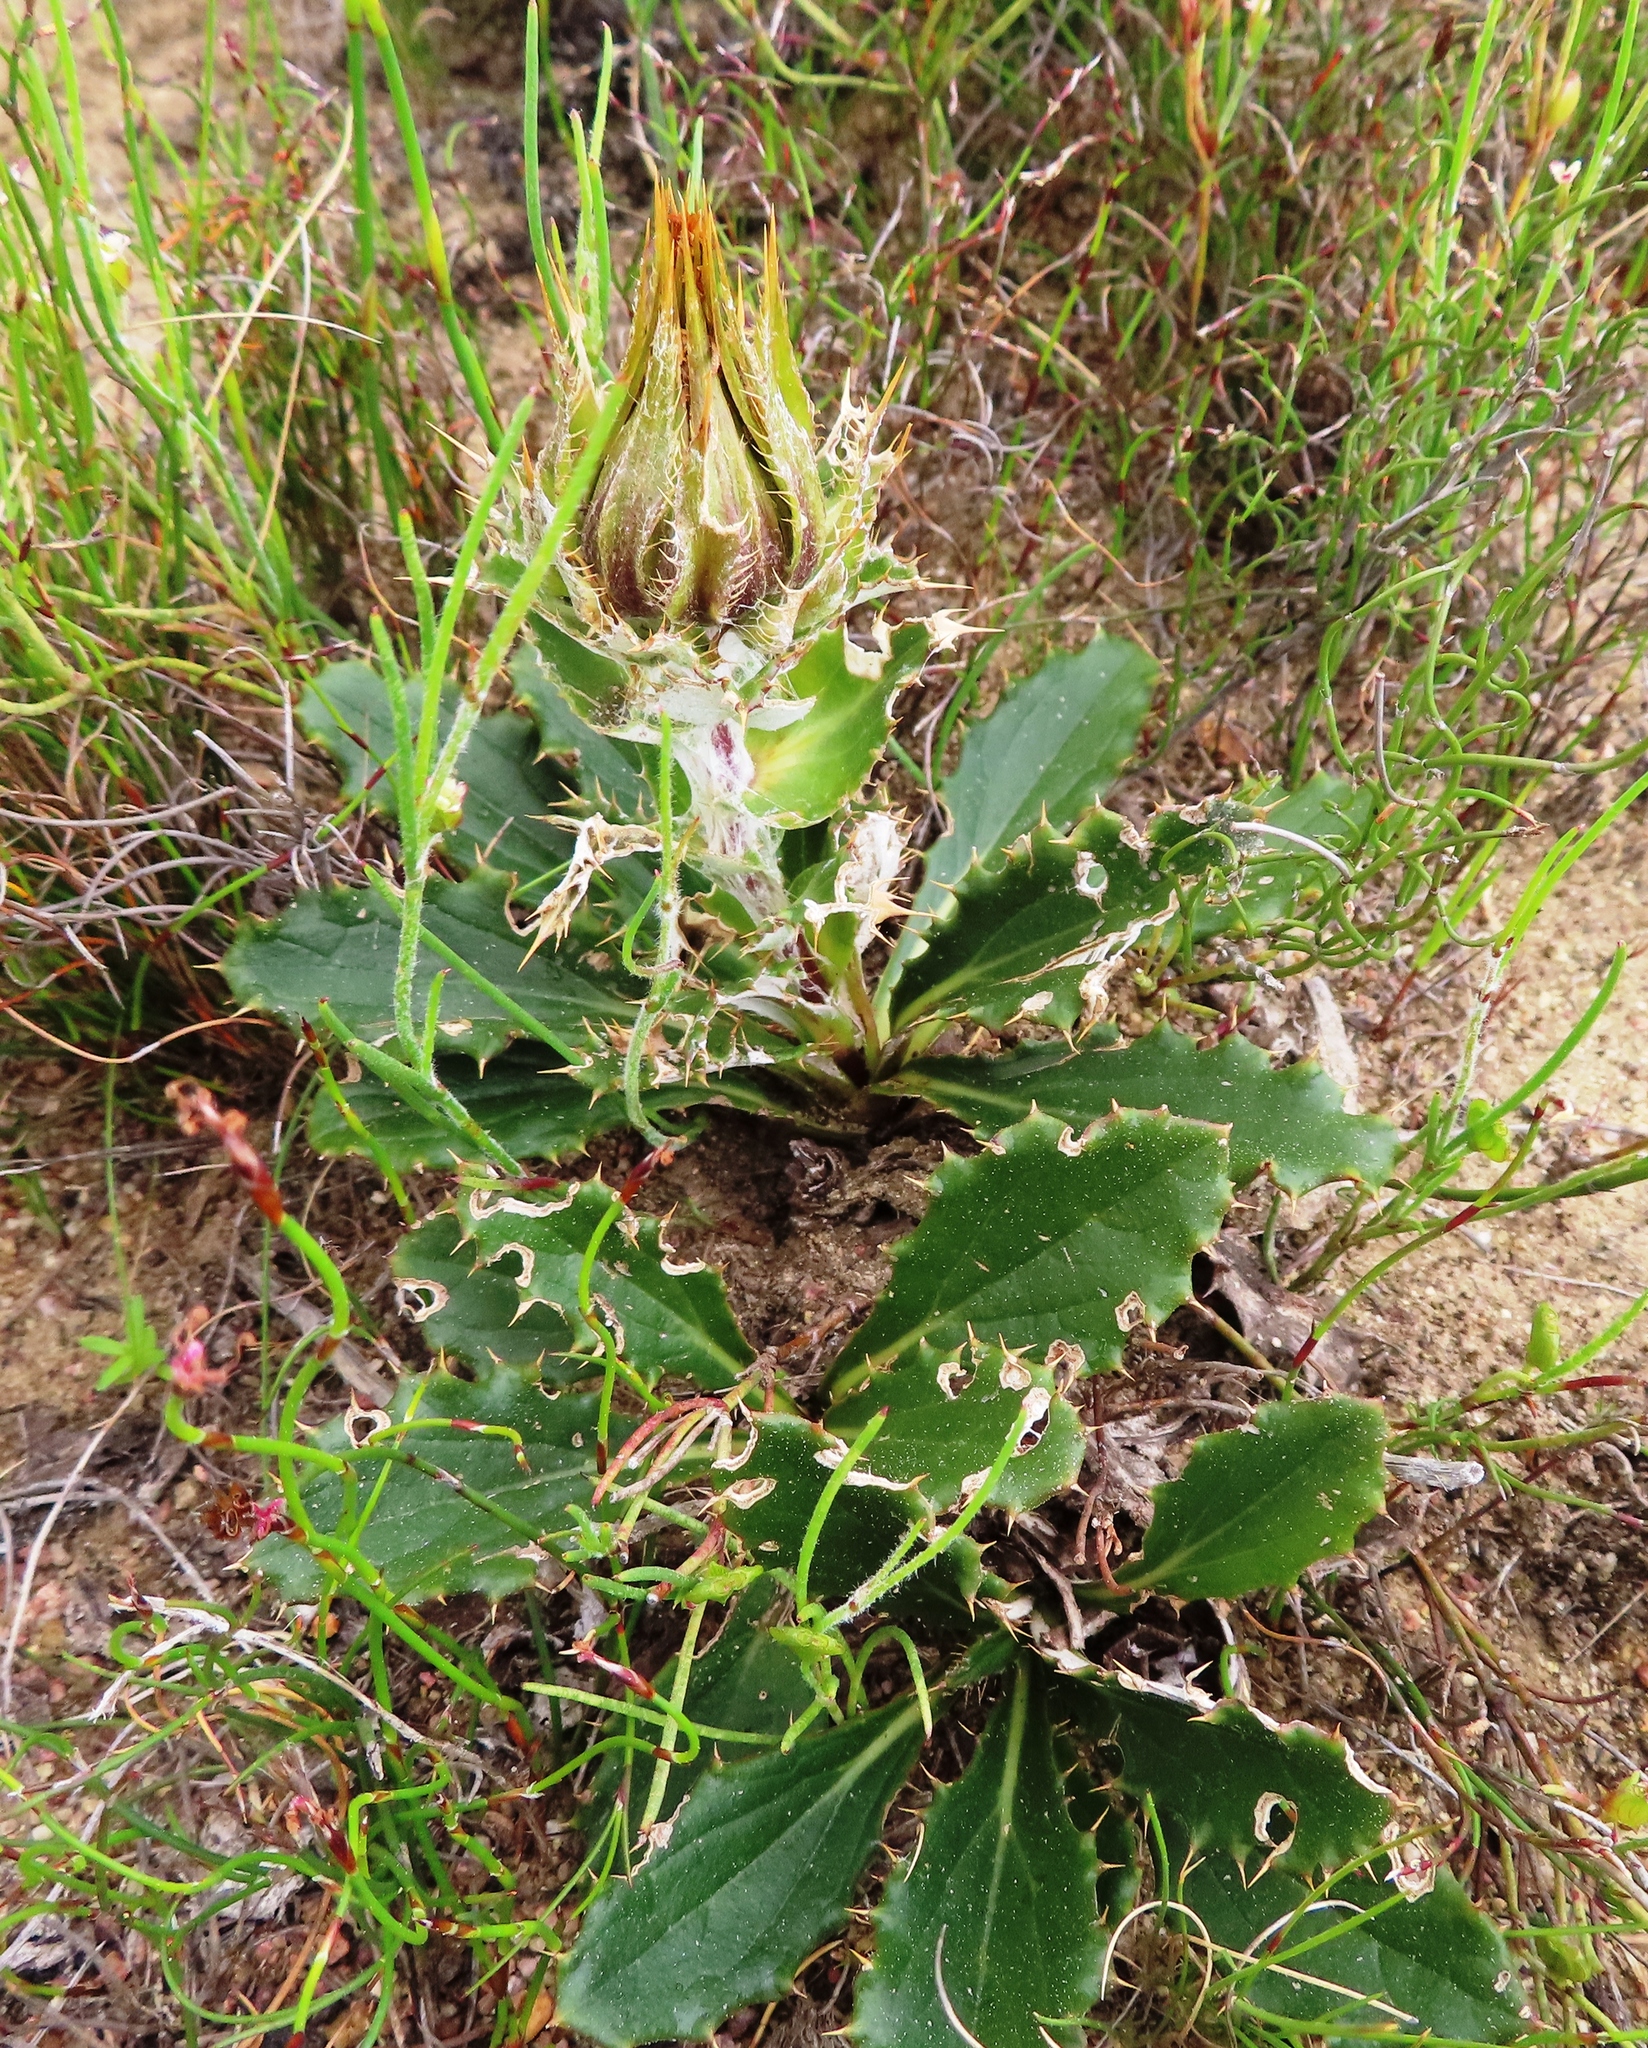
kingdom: Plantae
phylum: Tracheophyta
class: Magnoliopsida
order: Asterales
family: Asteraceae
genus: Berkheya
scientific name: Berkheya armata
